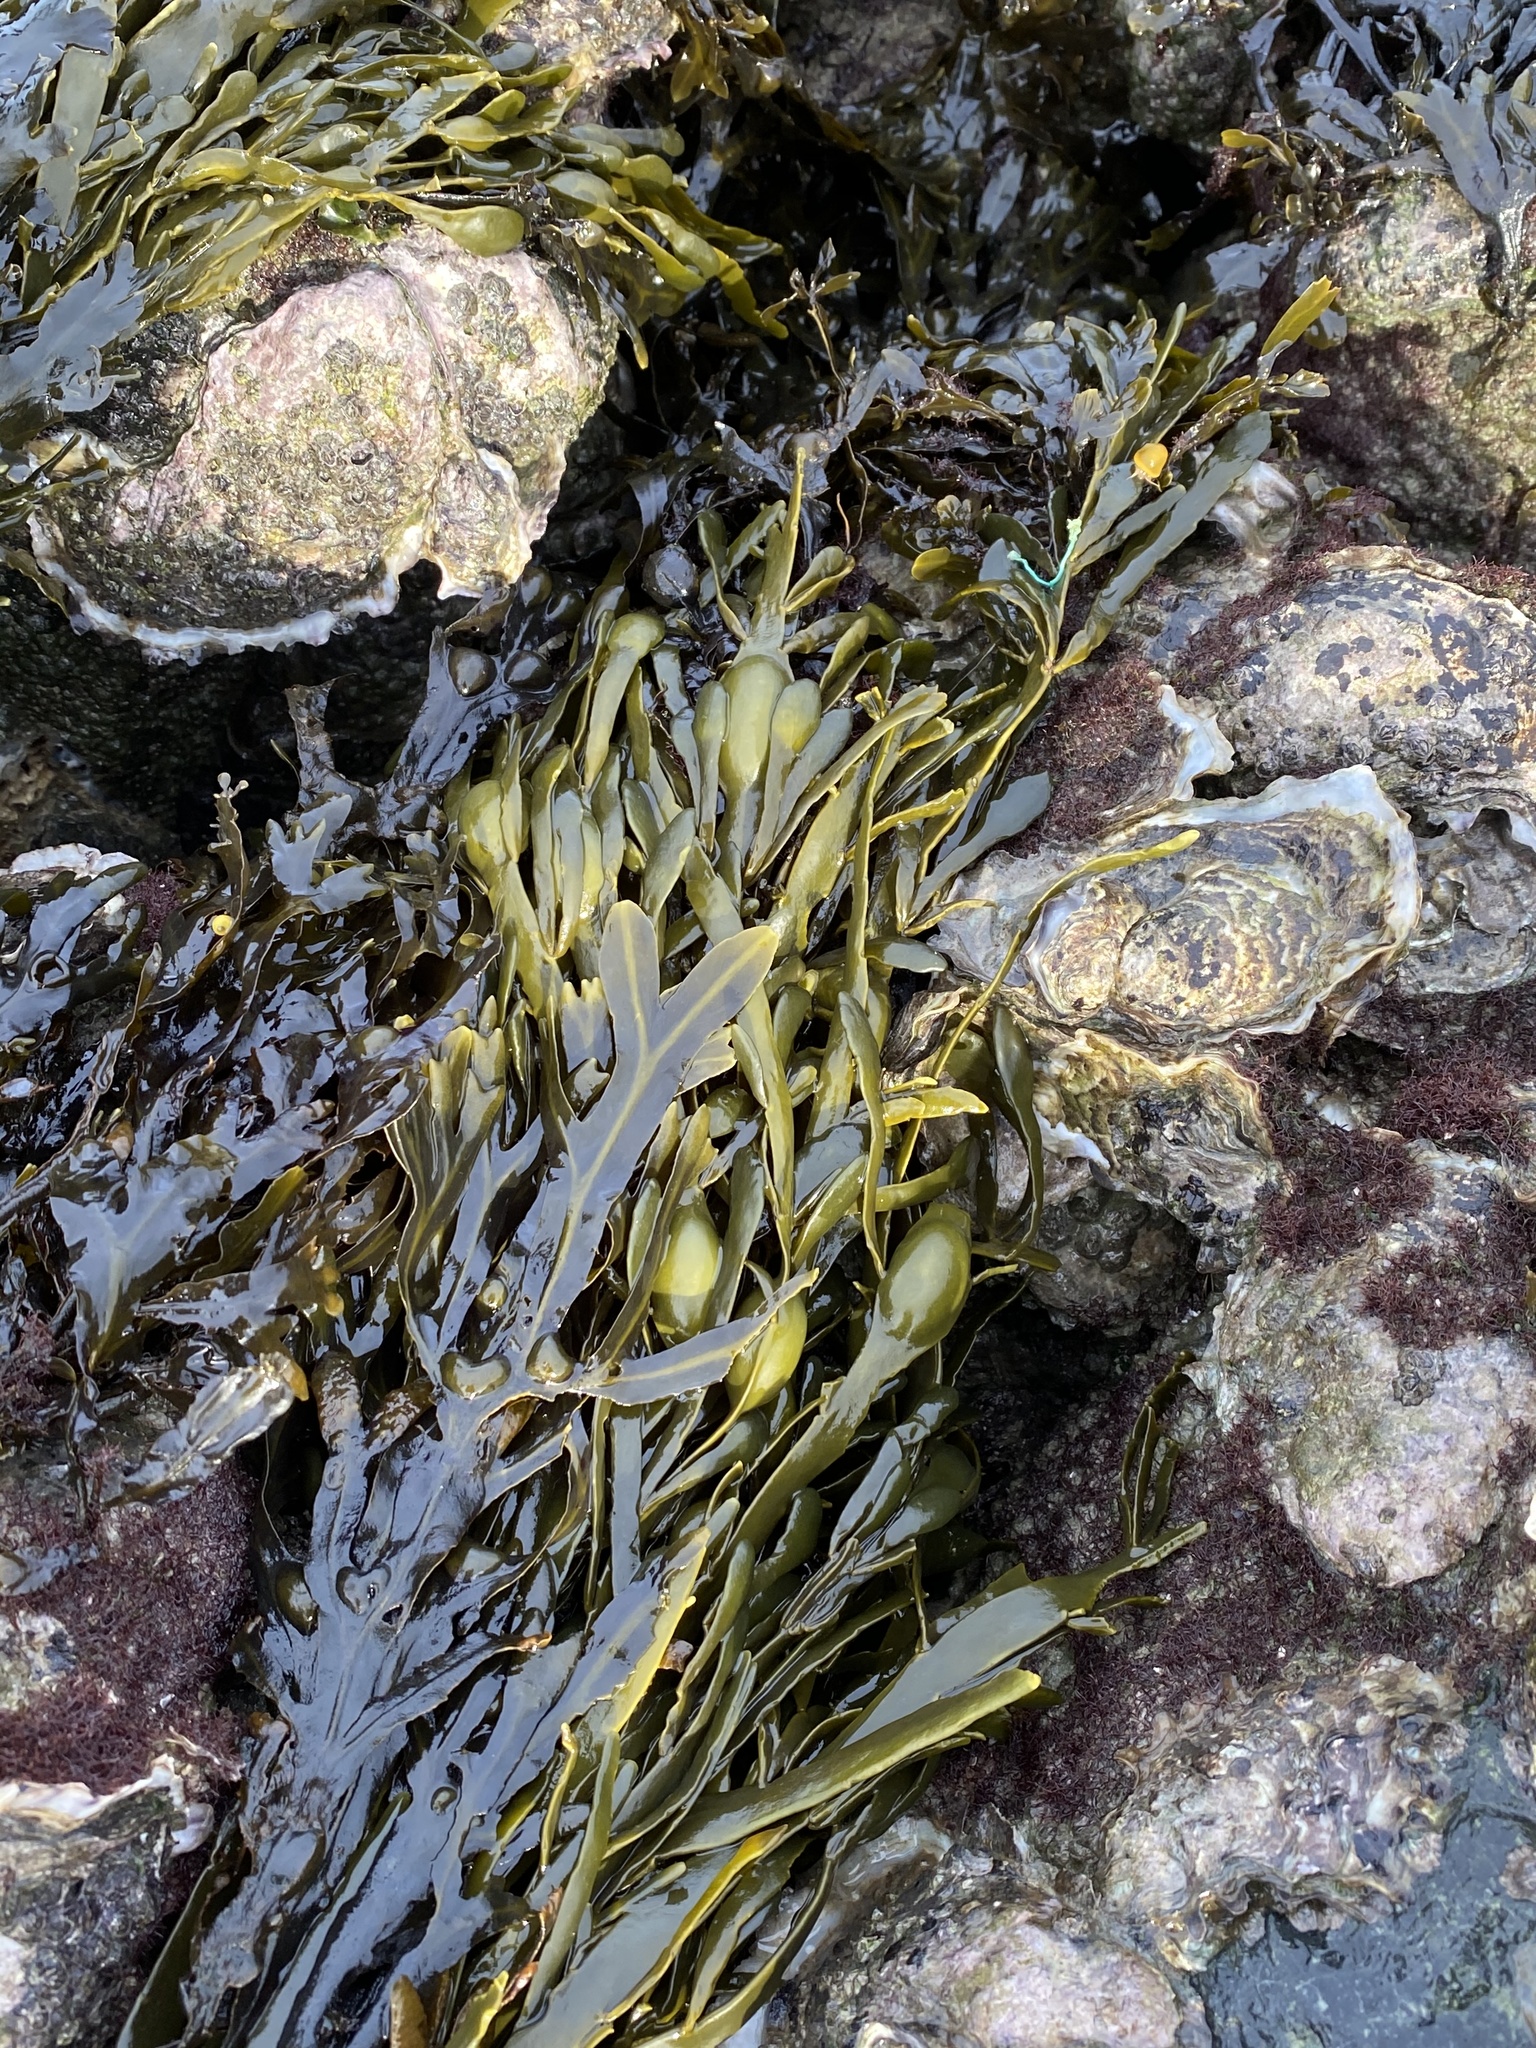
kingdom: Chromista
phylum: Ochrophyta
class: Phaeophyceae
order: Fucales
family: Fucaceae
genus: Ascophyllum
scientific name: Ascophyllum nodosum
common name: Knotted wrack
